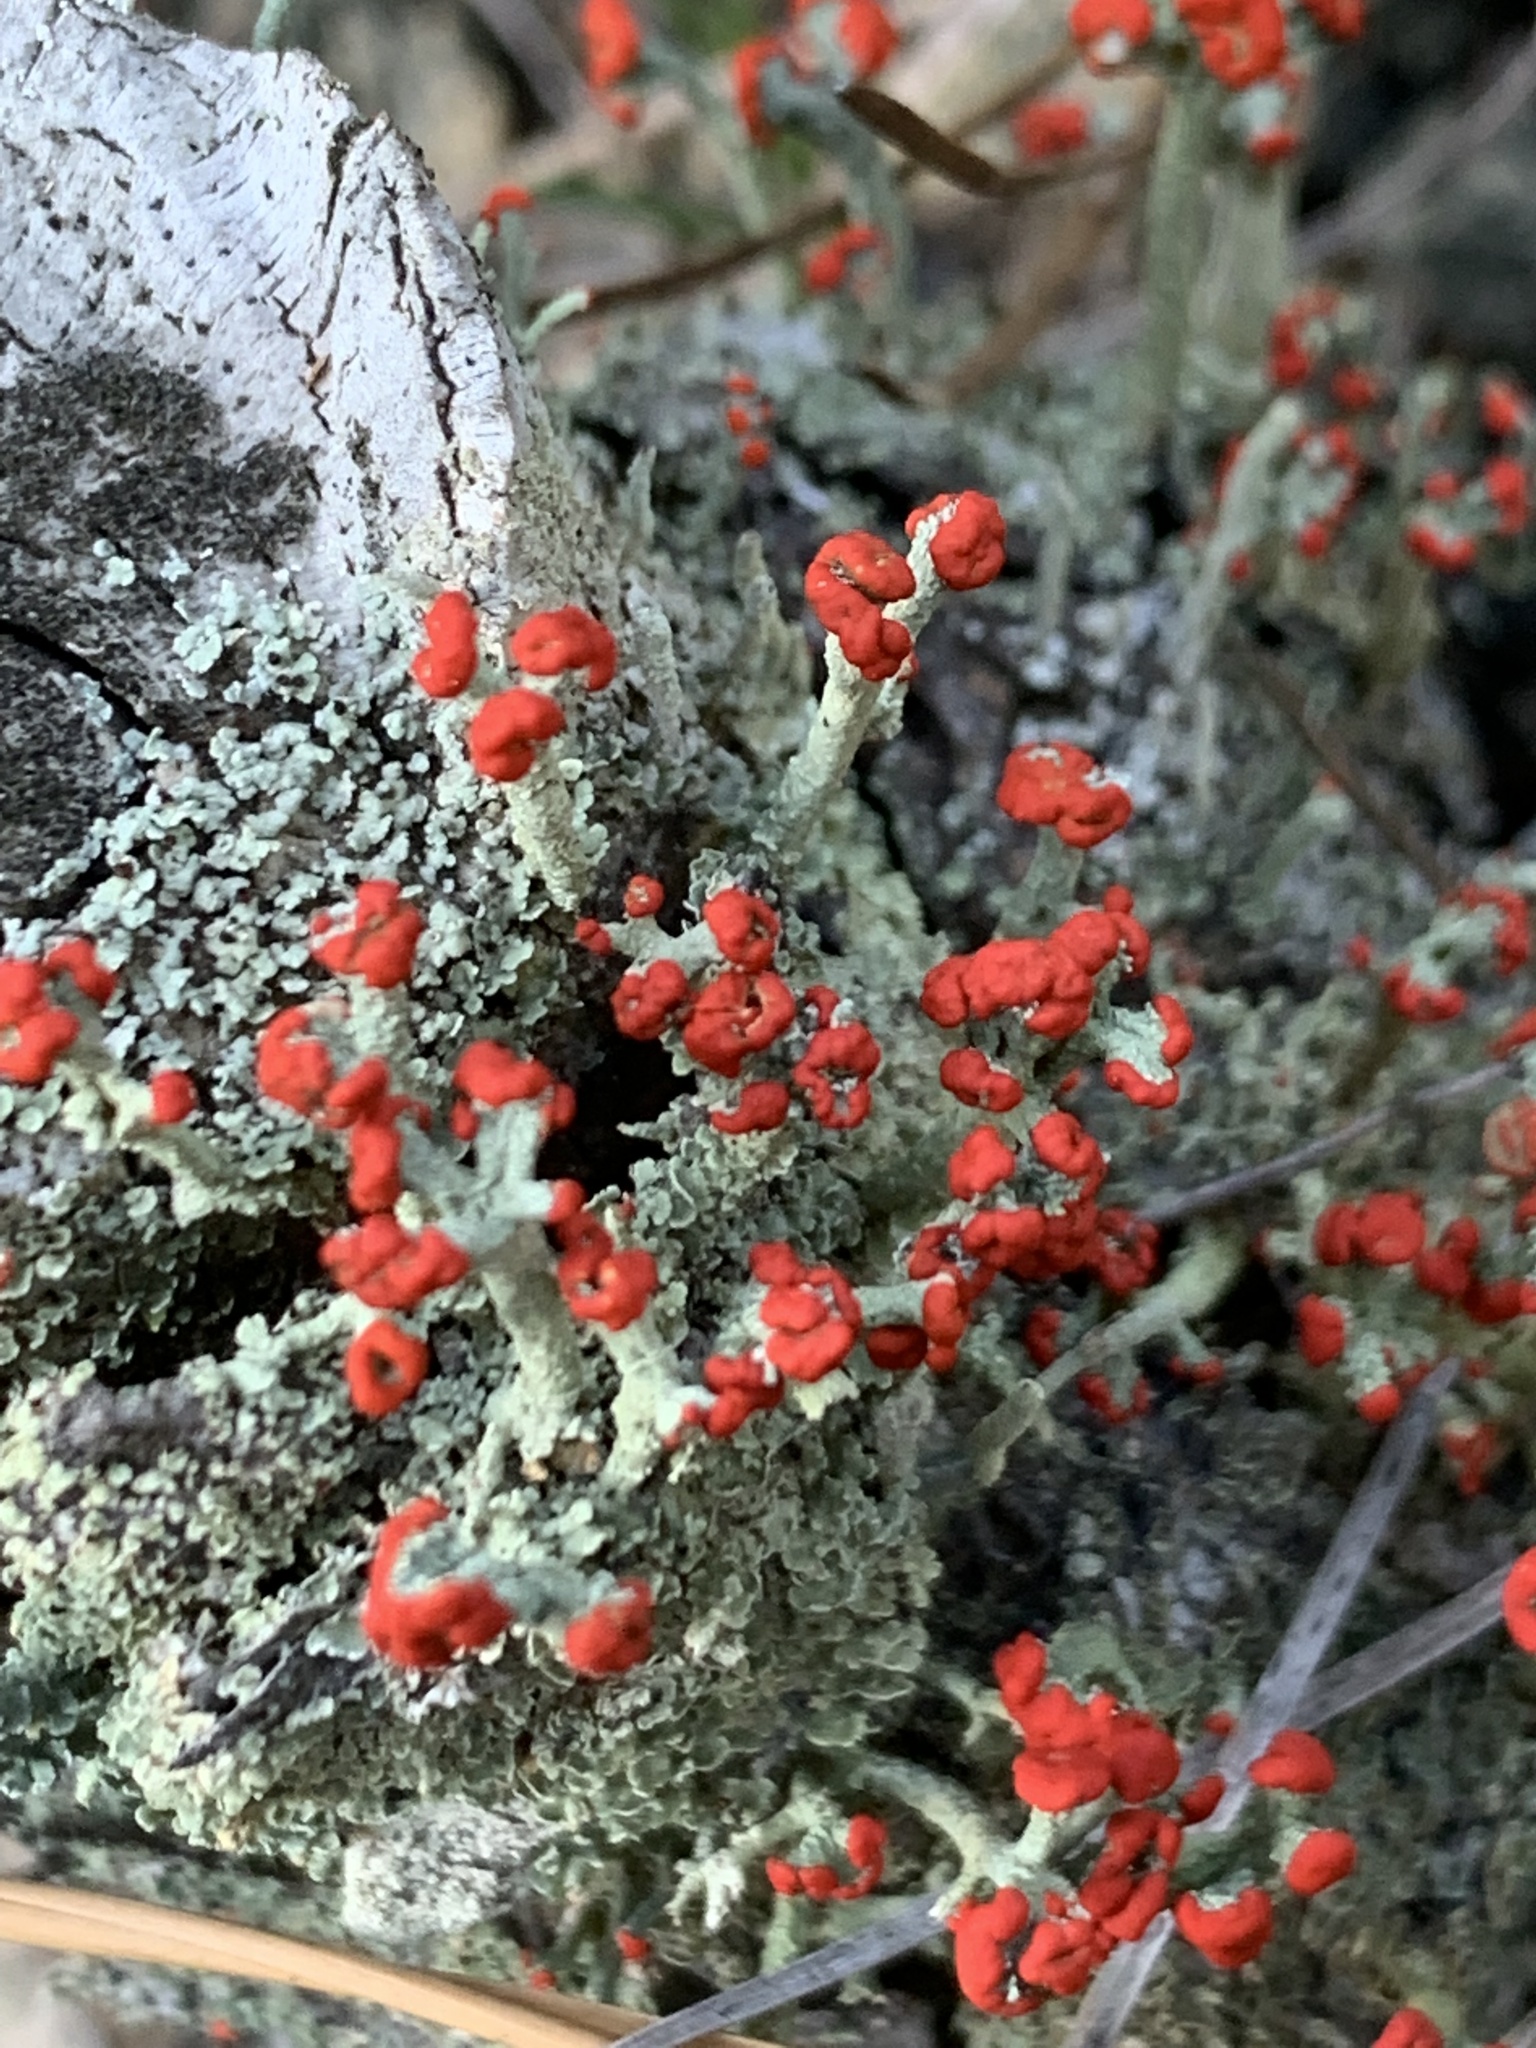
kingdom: Fungi
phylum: Ascomycota
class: Lecanoromycetes
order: Lecanorales
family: Cladoniaceae
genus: Cladonia
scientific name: Cladonia cristatella
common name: British soldier lichen
